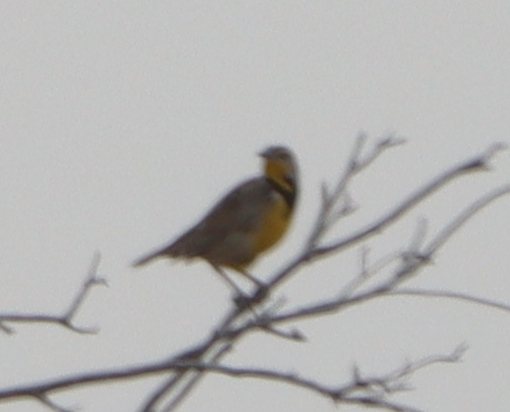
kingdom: Animalia
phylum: Chordata
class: Aves
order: Passeriformes
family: Icteridae
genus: Sturnella
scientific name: Sturnella neglecta
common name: Western meadowlark
